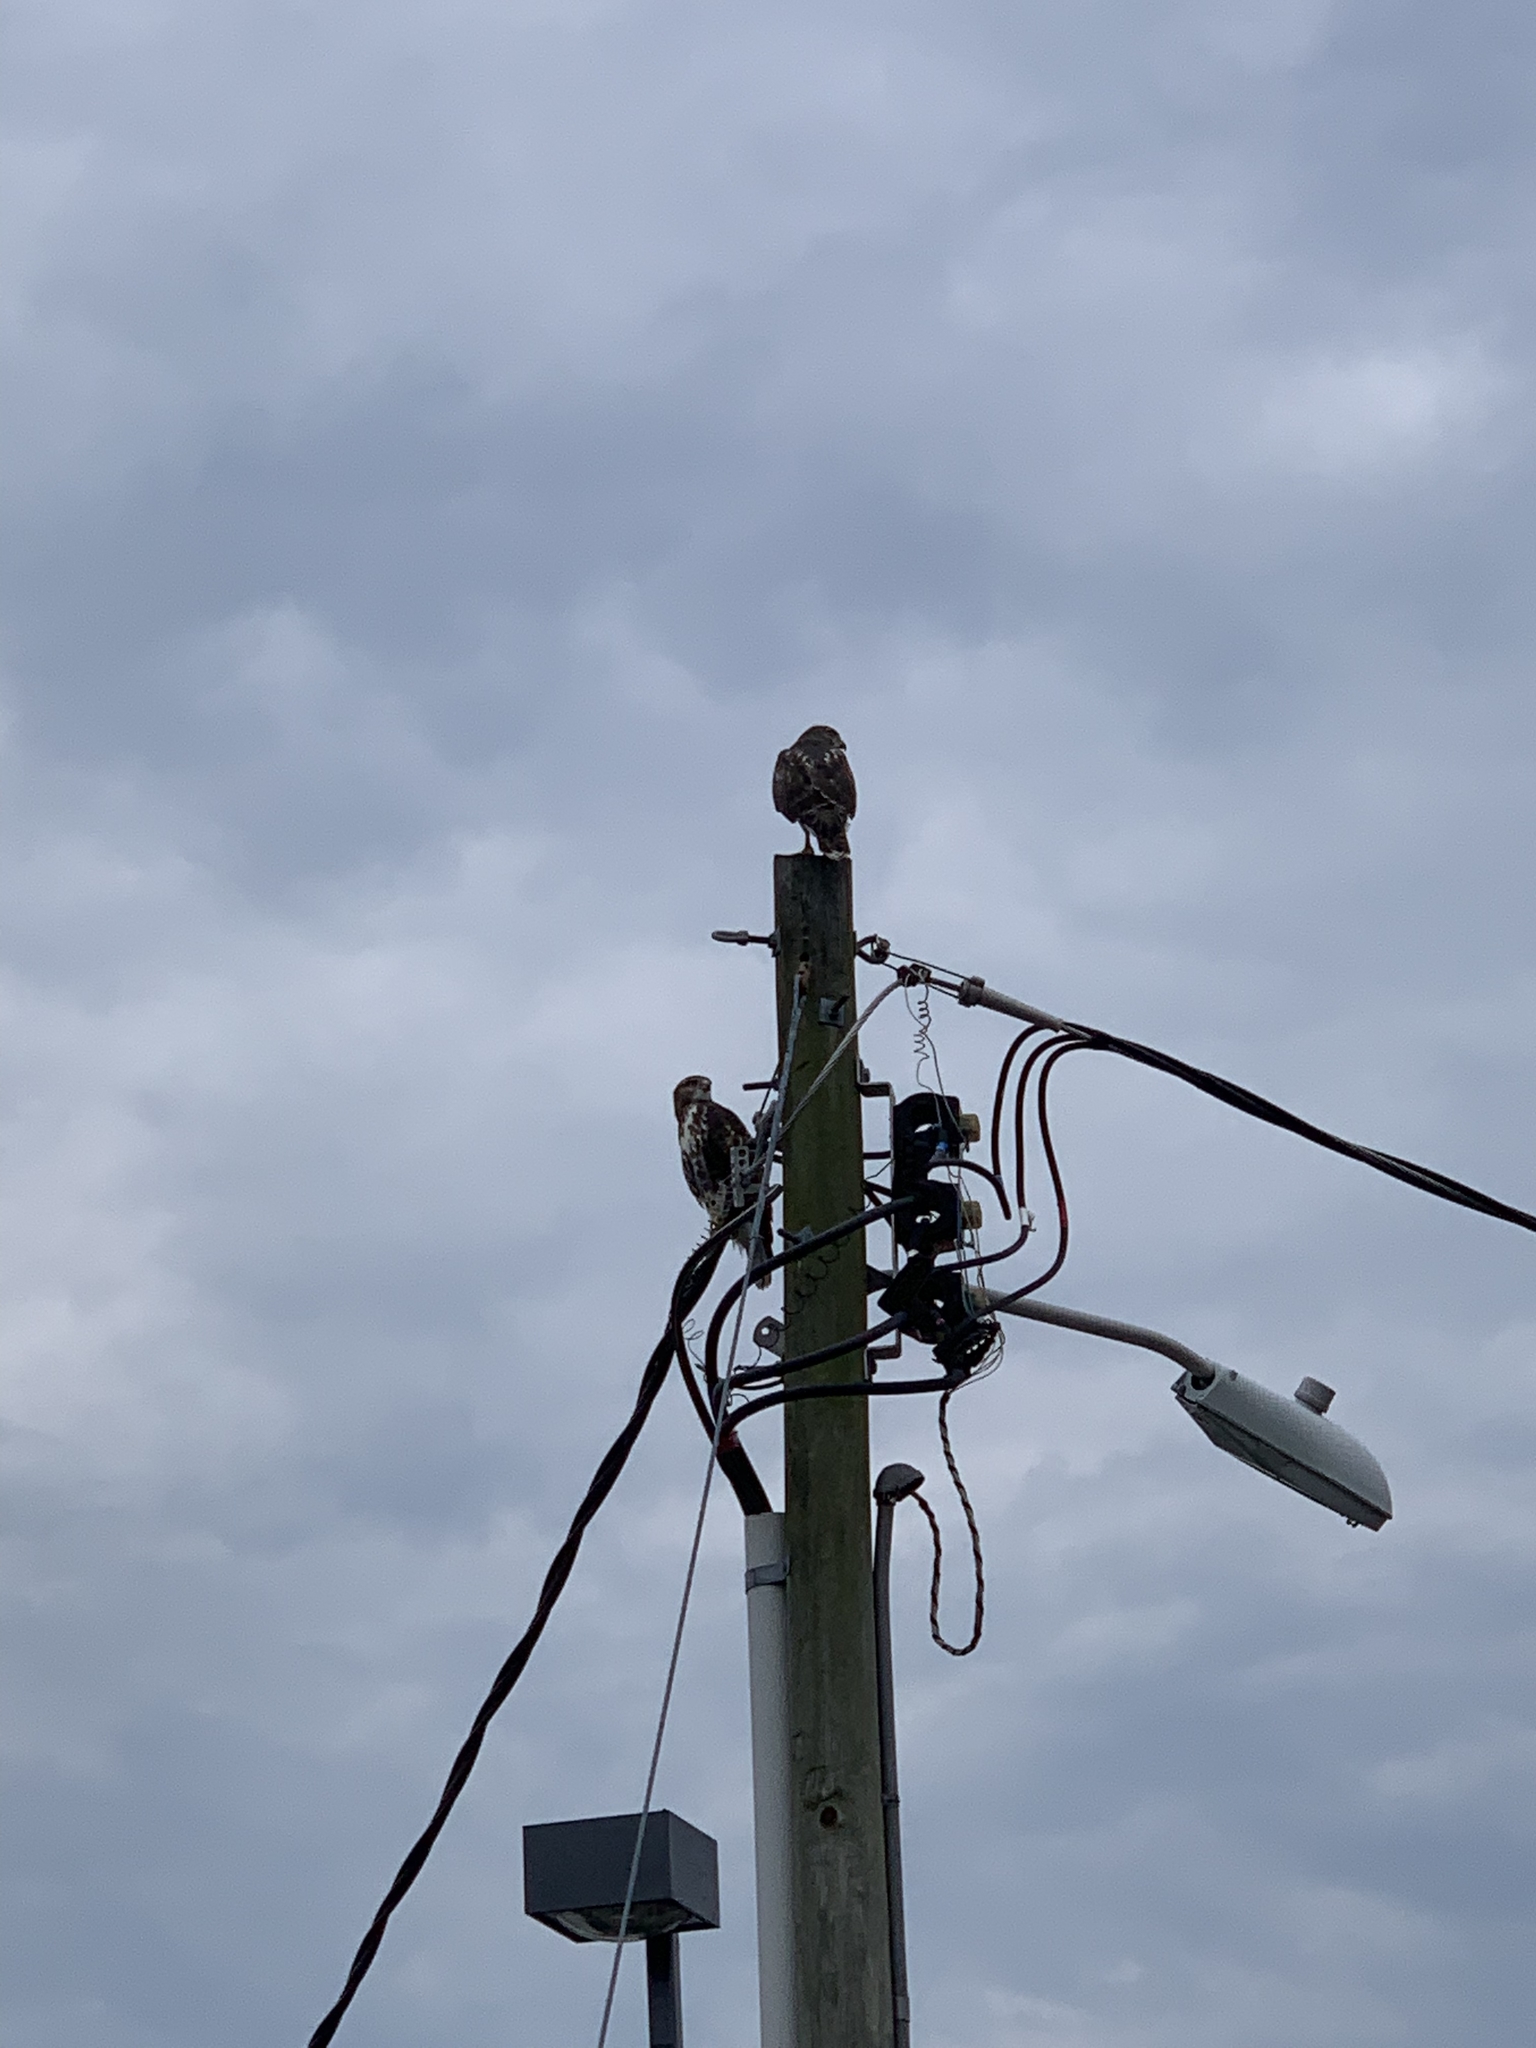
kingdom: Animalia
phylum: Chordata
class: Aves
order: Accipitriformes
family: Accipitridae
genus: Buteo
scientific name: Buteo jamaicensis
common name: Red-tailed hawk
